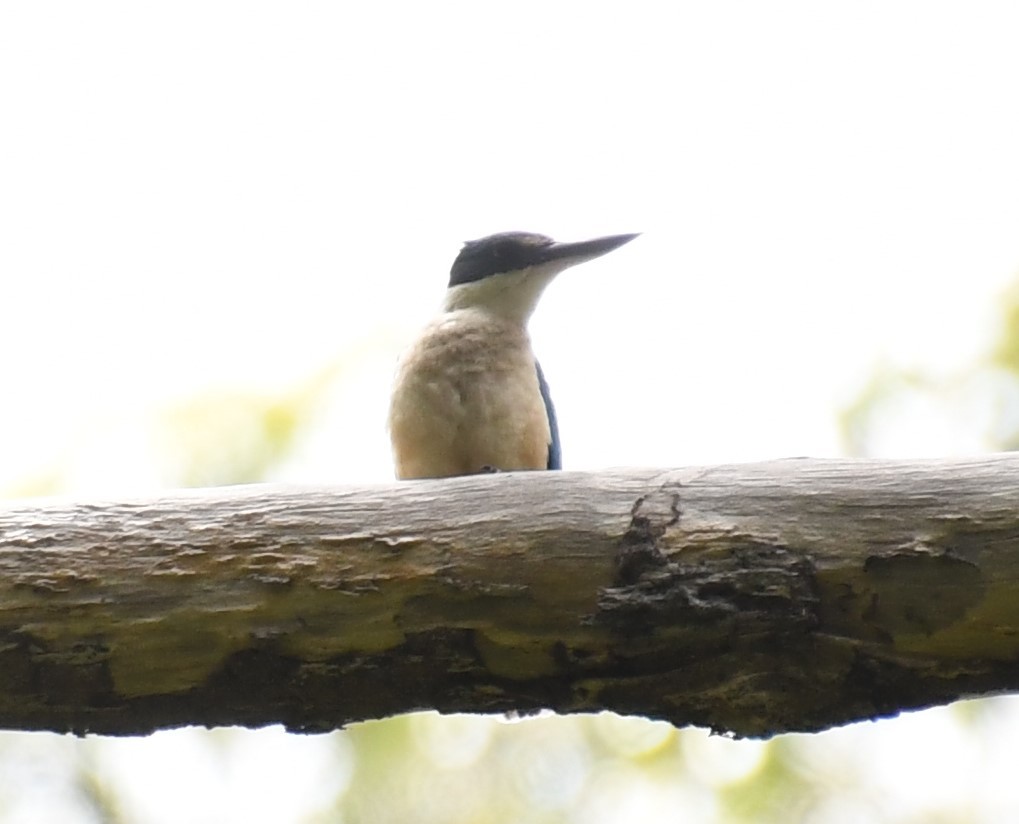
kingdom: Animalia
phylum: Chordata
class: Aves
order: Coraciiformes
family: Alcedinidae
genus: Todiramphus
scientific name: Todiramphus sanctus
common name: Sacred kingfisher
